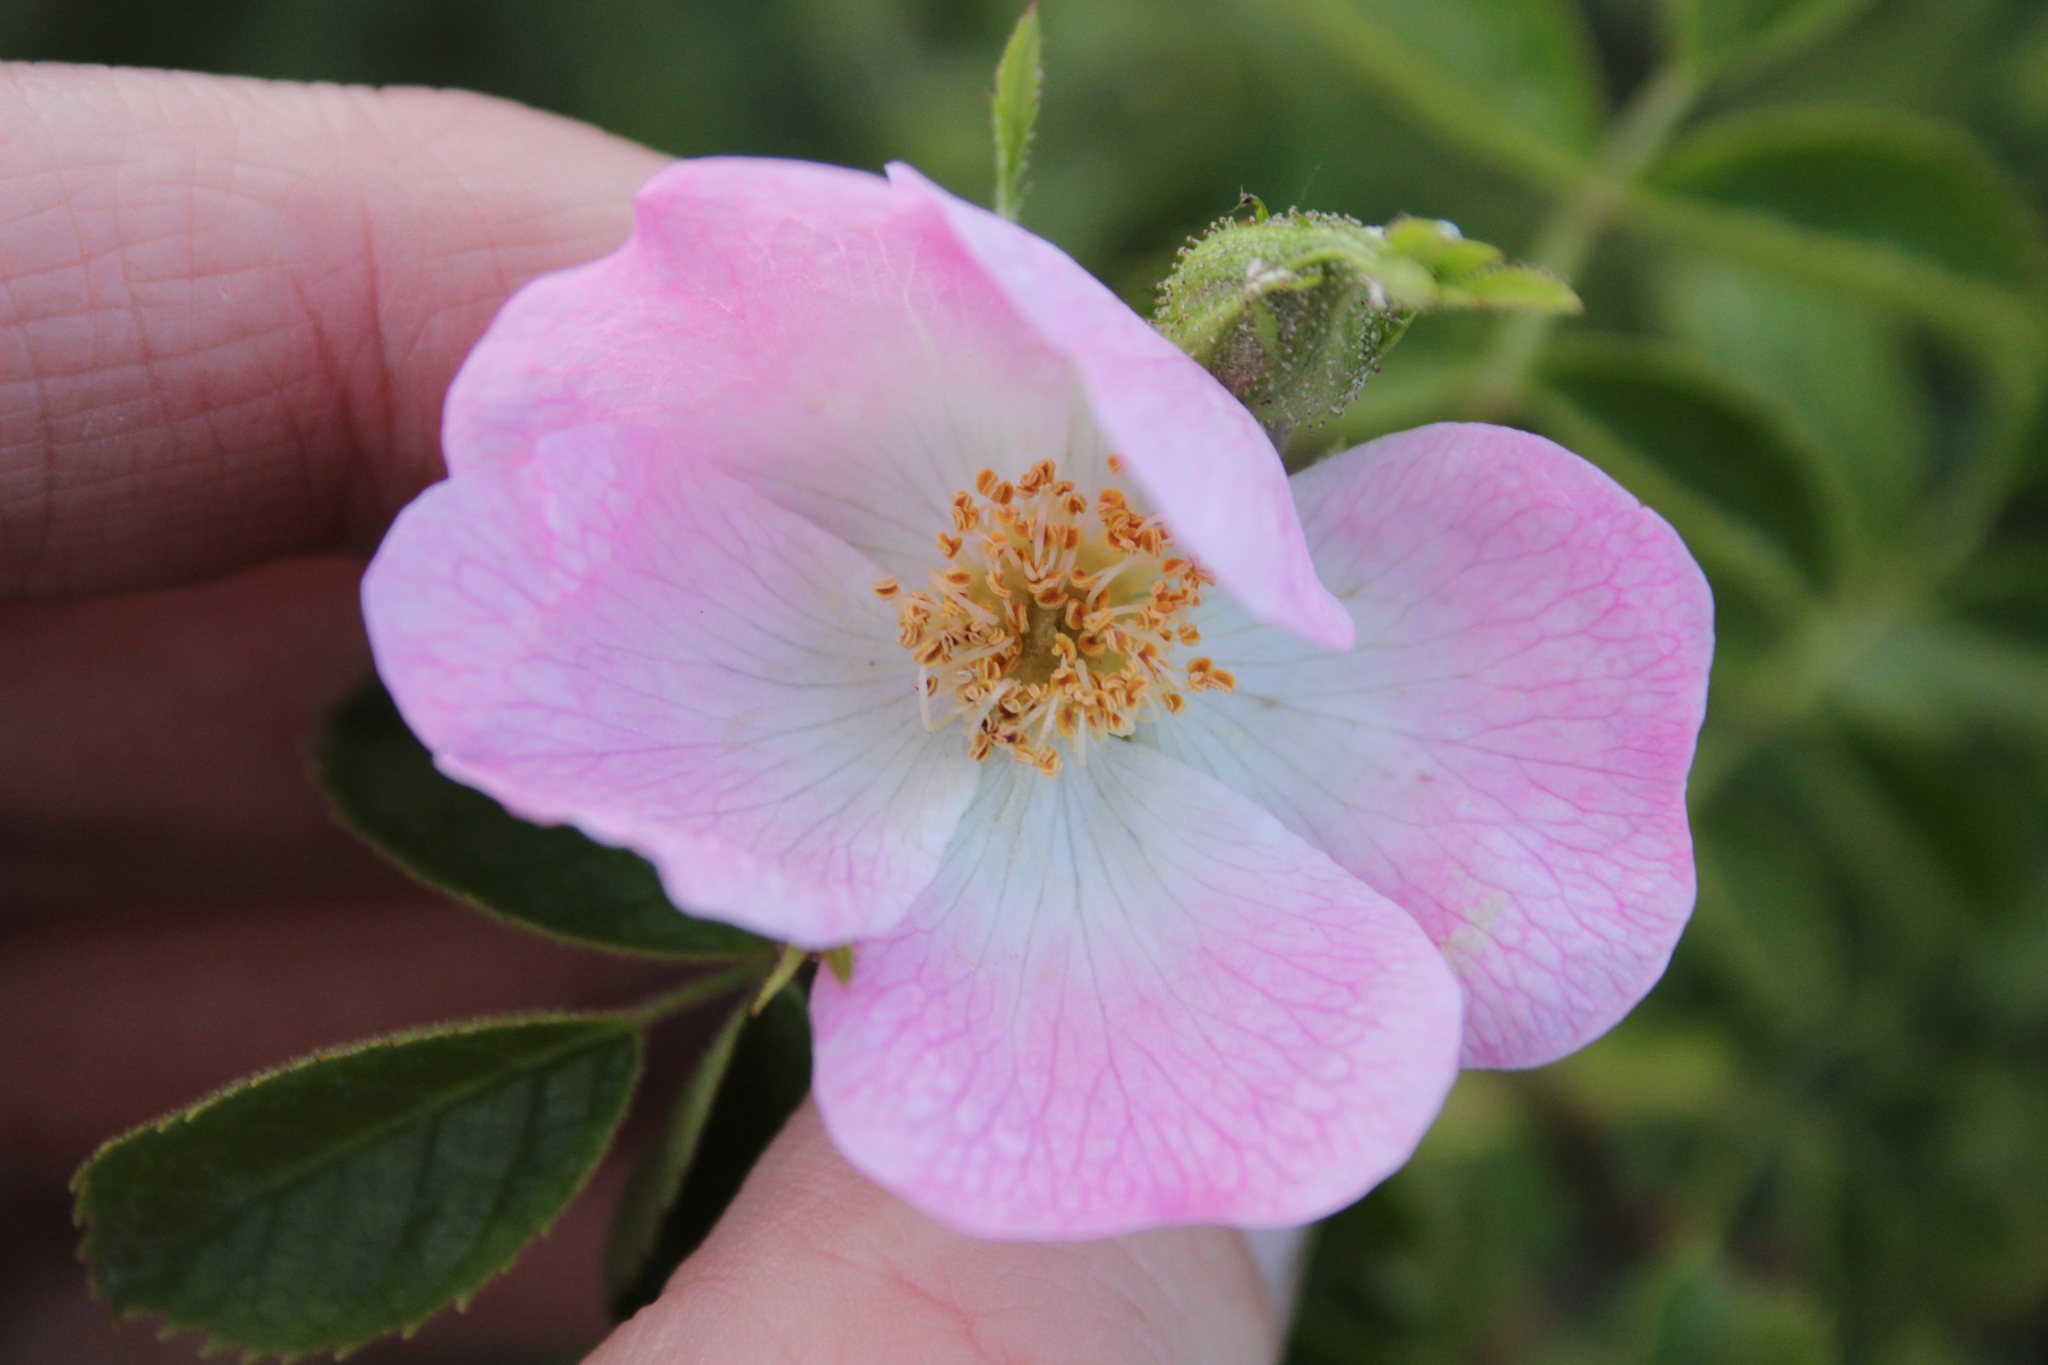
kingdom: Plantae
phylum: Tracheophyta
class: Magnoliopsida
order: Rosales
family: Rosaceae
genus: Rosa
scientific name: Rosa rubiginosa
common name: Sweet-briar
